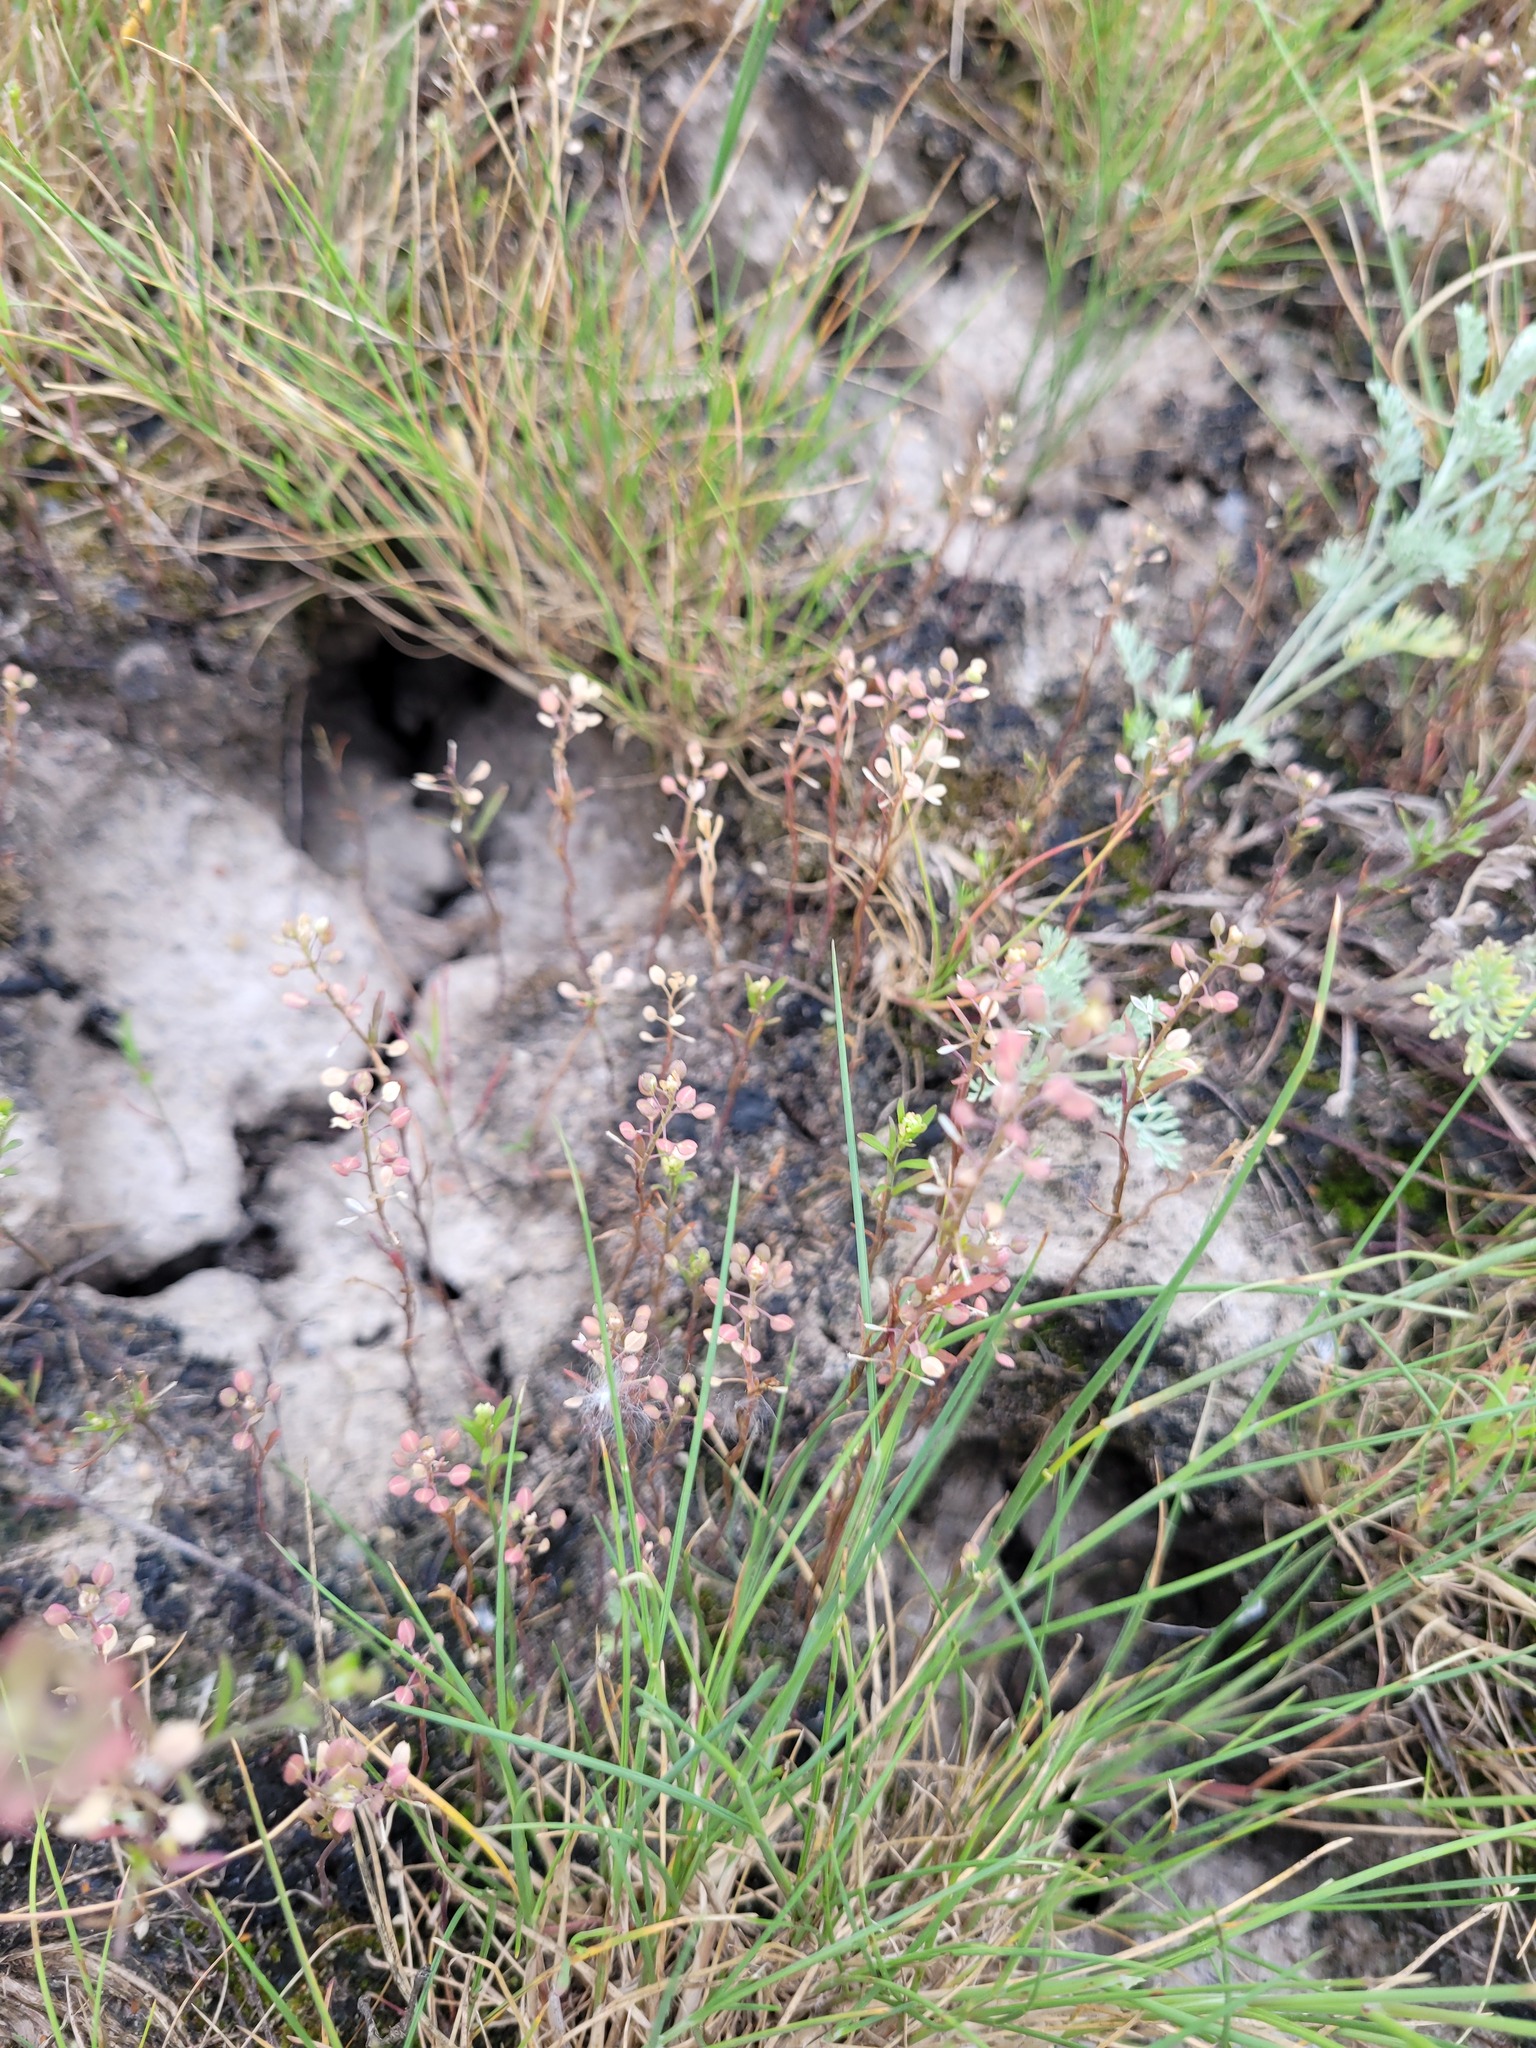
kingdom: Plantae
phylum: Tracheophyta
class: Magnoliopsida
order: Brassicales
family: Brassicaceae
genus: Lepidium
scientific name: Lepidium ruderale
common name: Narrow-leaved pepperwort
